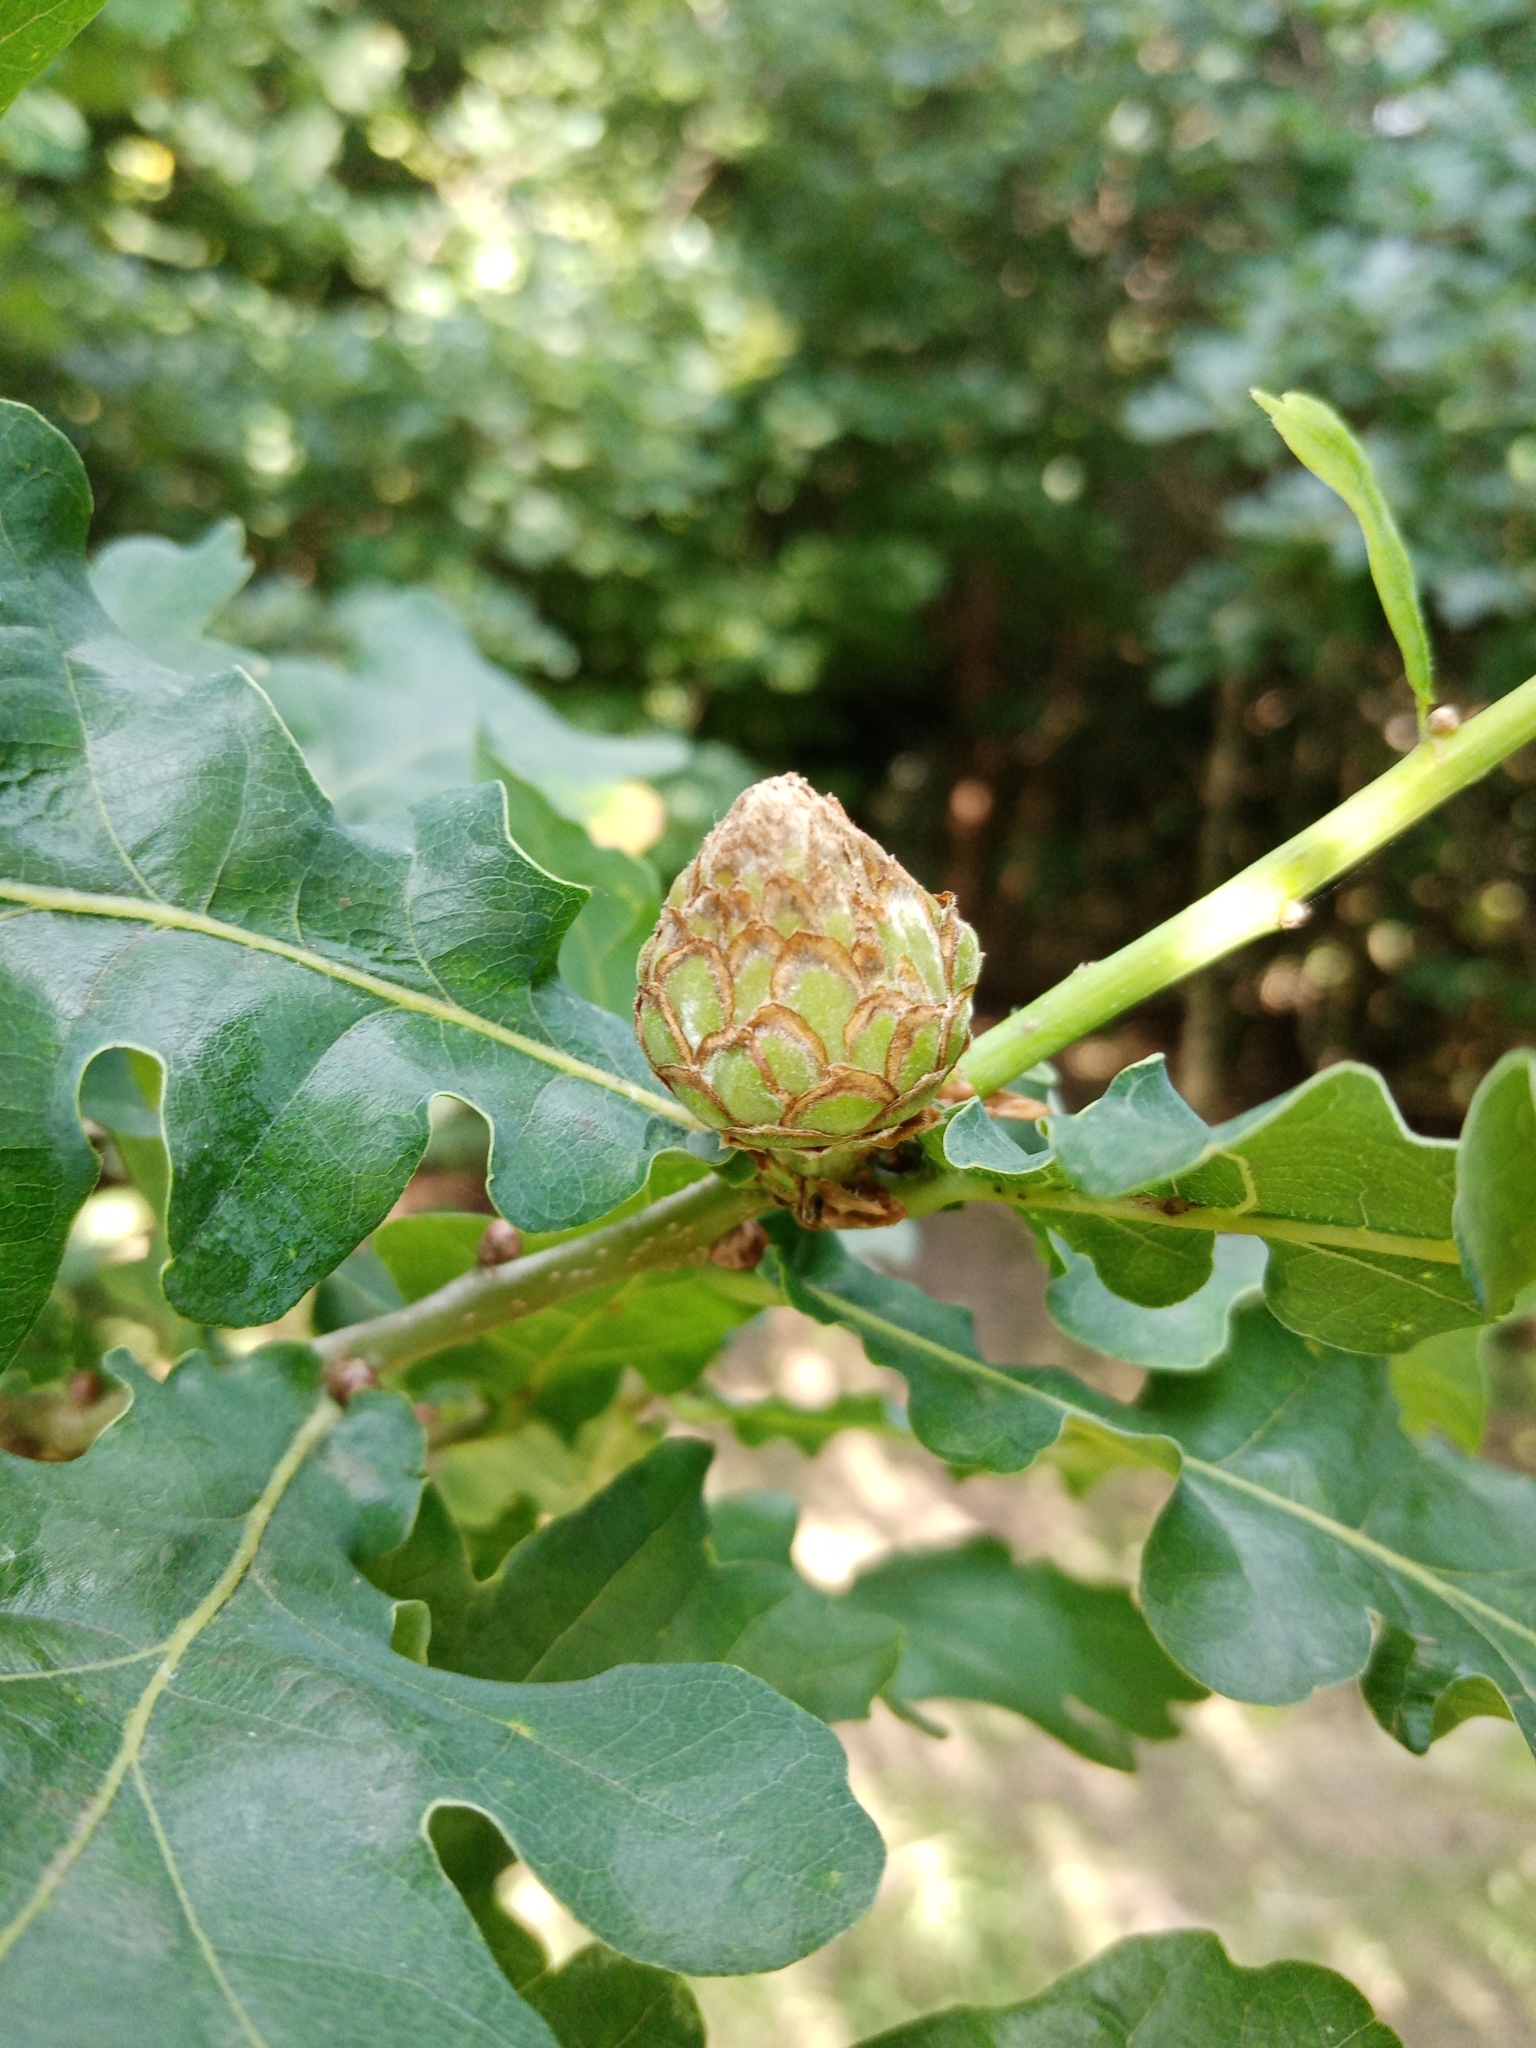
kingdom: Animalia
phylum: Arthropoda
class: Insecta
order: Hymenoptera
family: Cynipidae
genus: Andricus
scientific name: Andricus foecundatrix
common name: Artichoke gall
